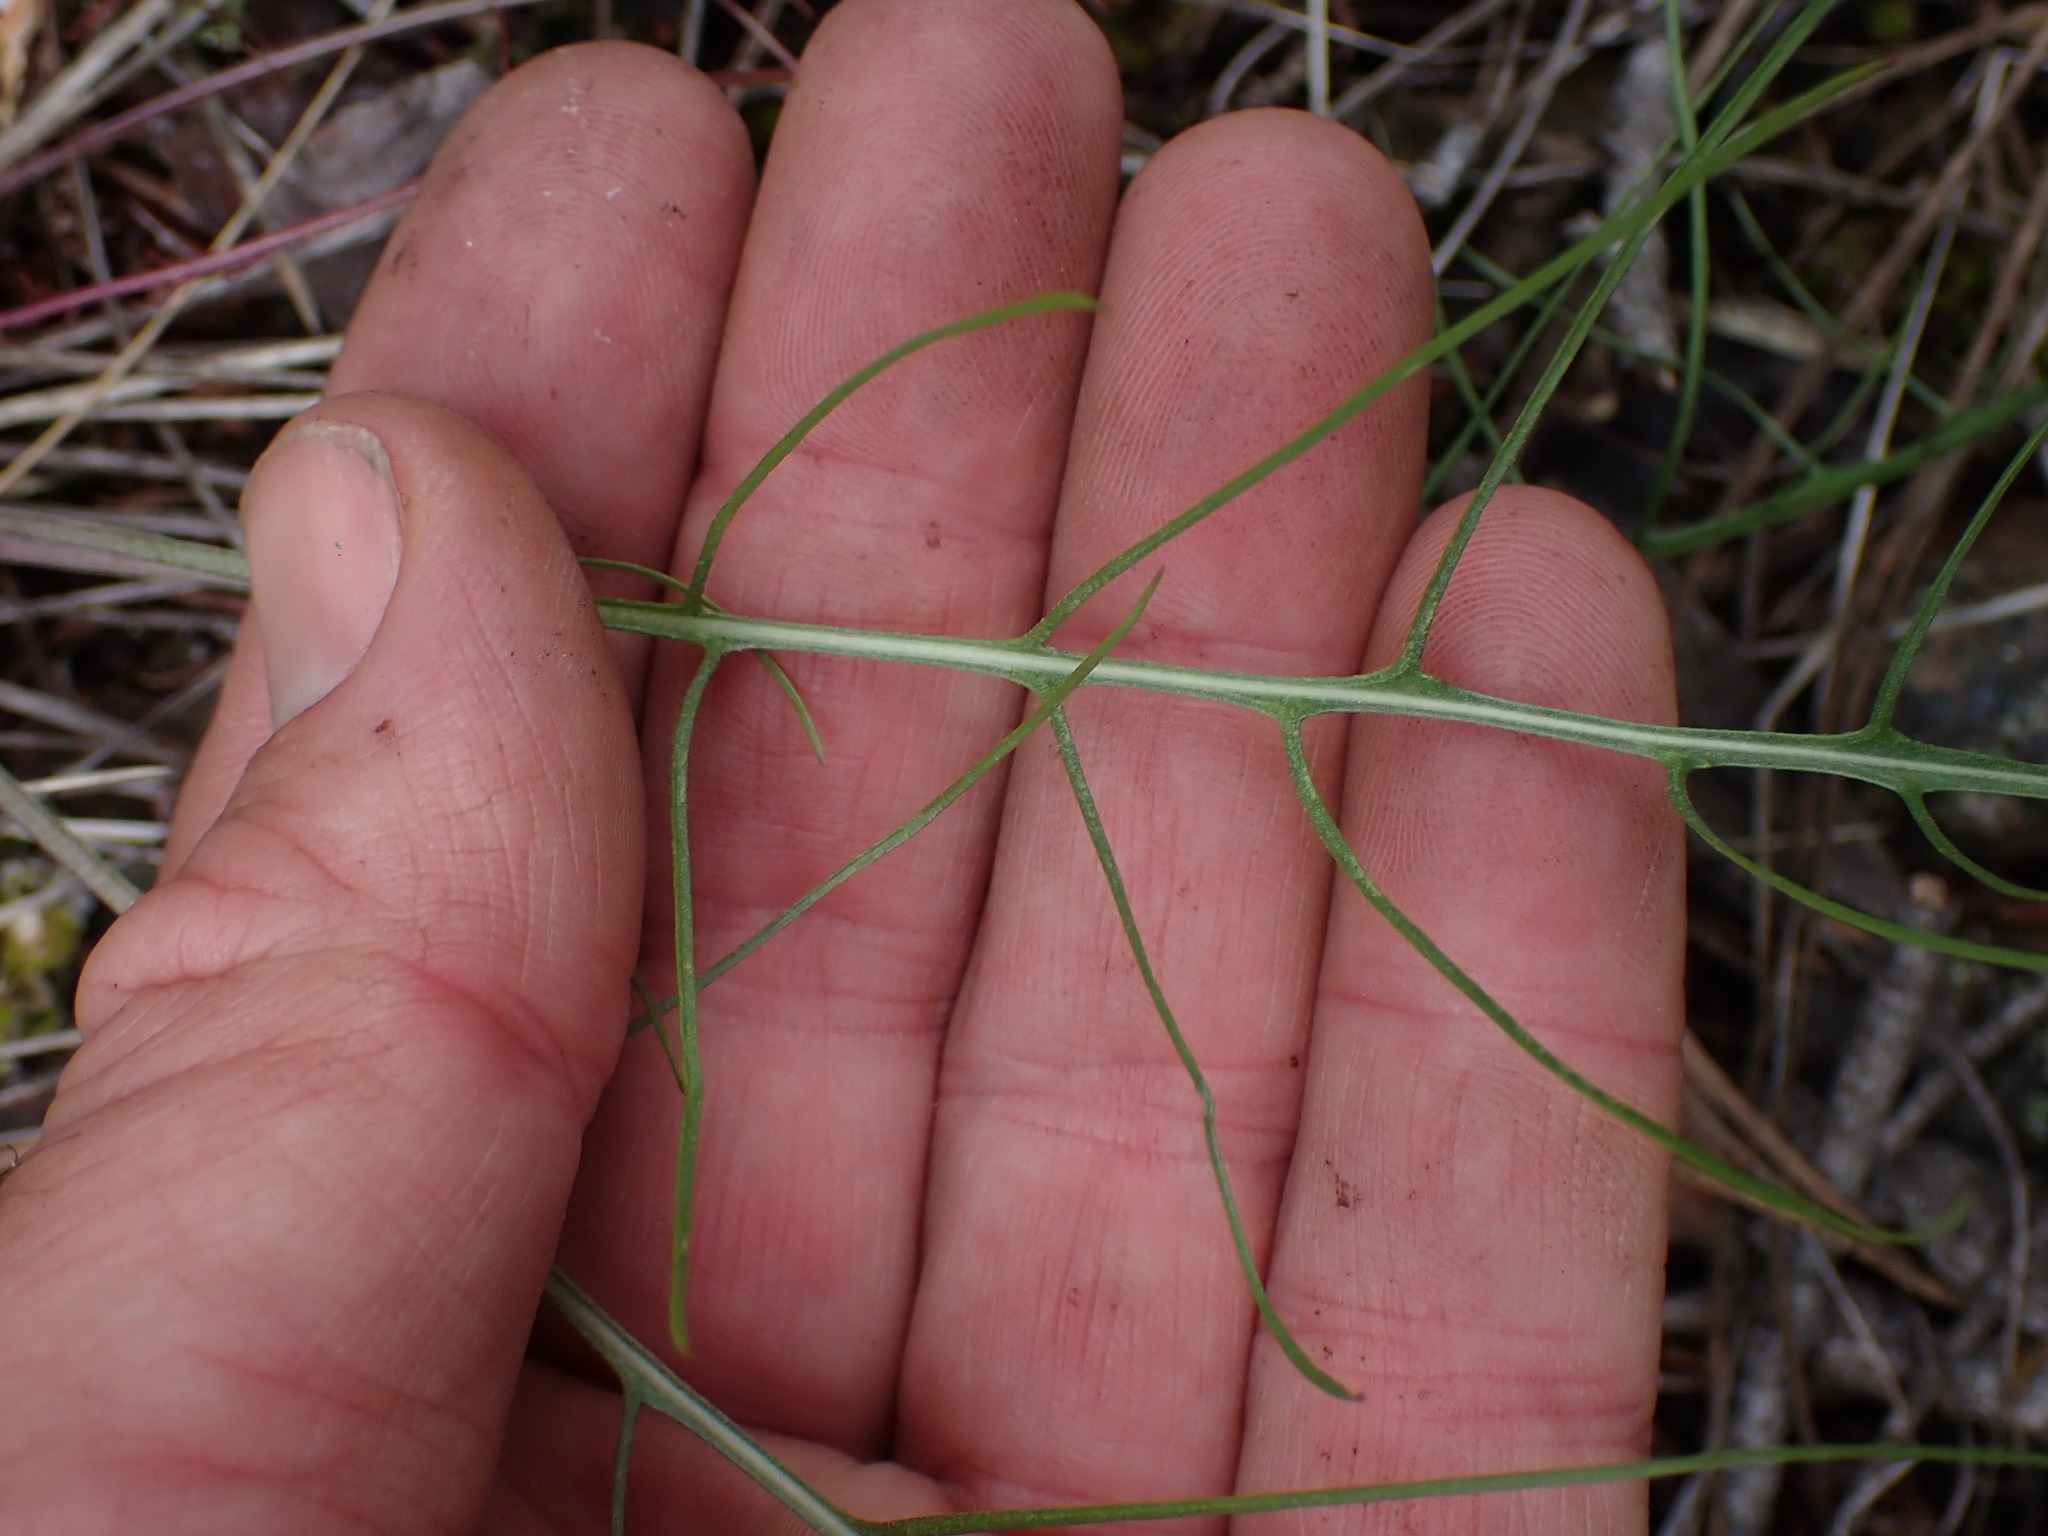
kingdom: Plantae
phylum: Tracheophyta
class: Magnoliopsida
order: Asterales
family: Asteraceae
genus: Crepis
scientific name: Crepis atribarba
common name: Dark hawk's-beard
